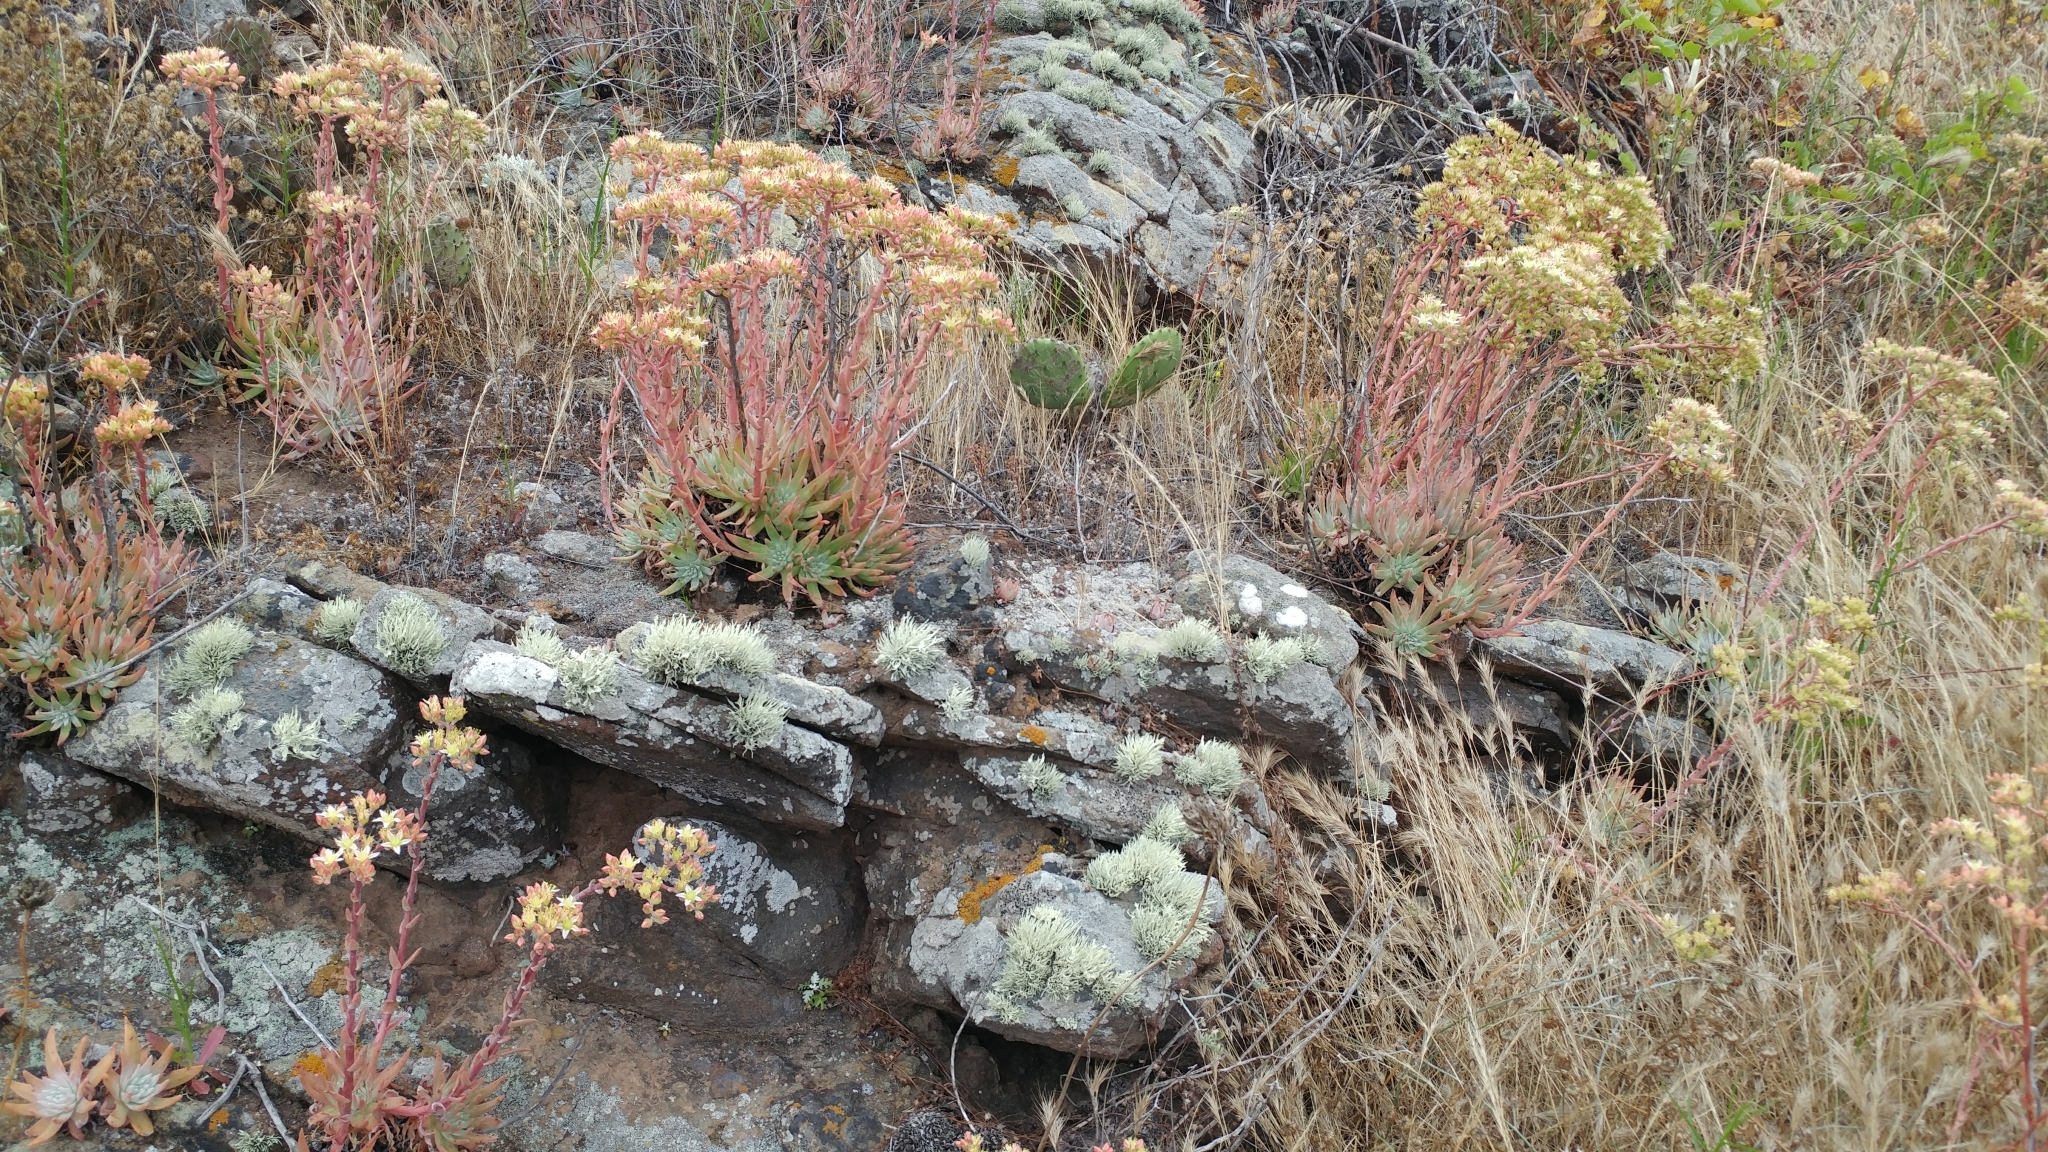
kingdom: Plantae
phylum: Tracheophyta
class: Magnoliopsida
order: Saxifragales
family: Crassulaceae
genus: Dudleya
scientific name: Dudleya virens
